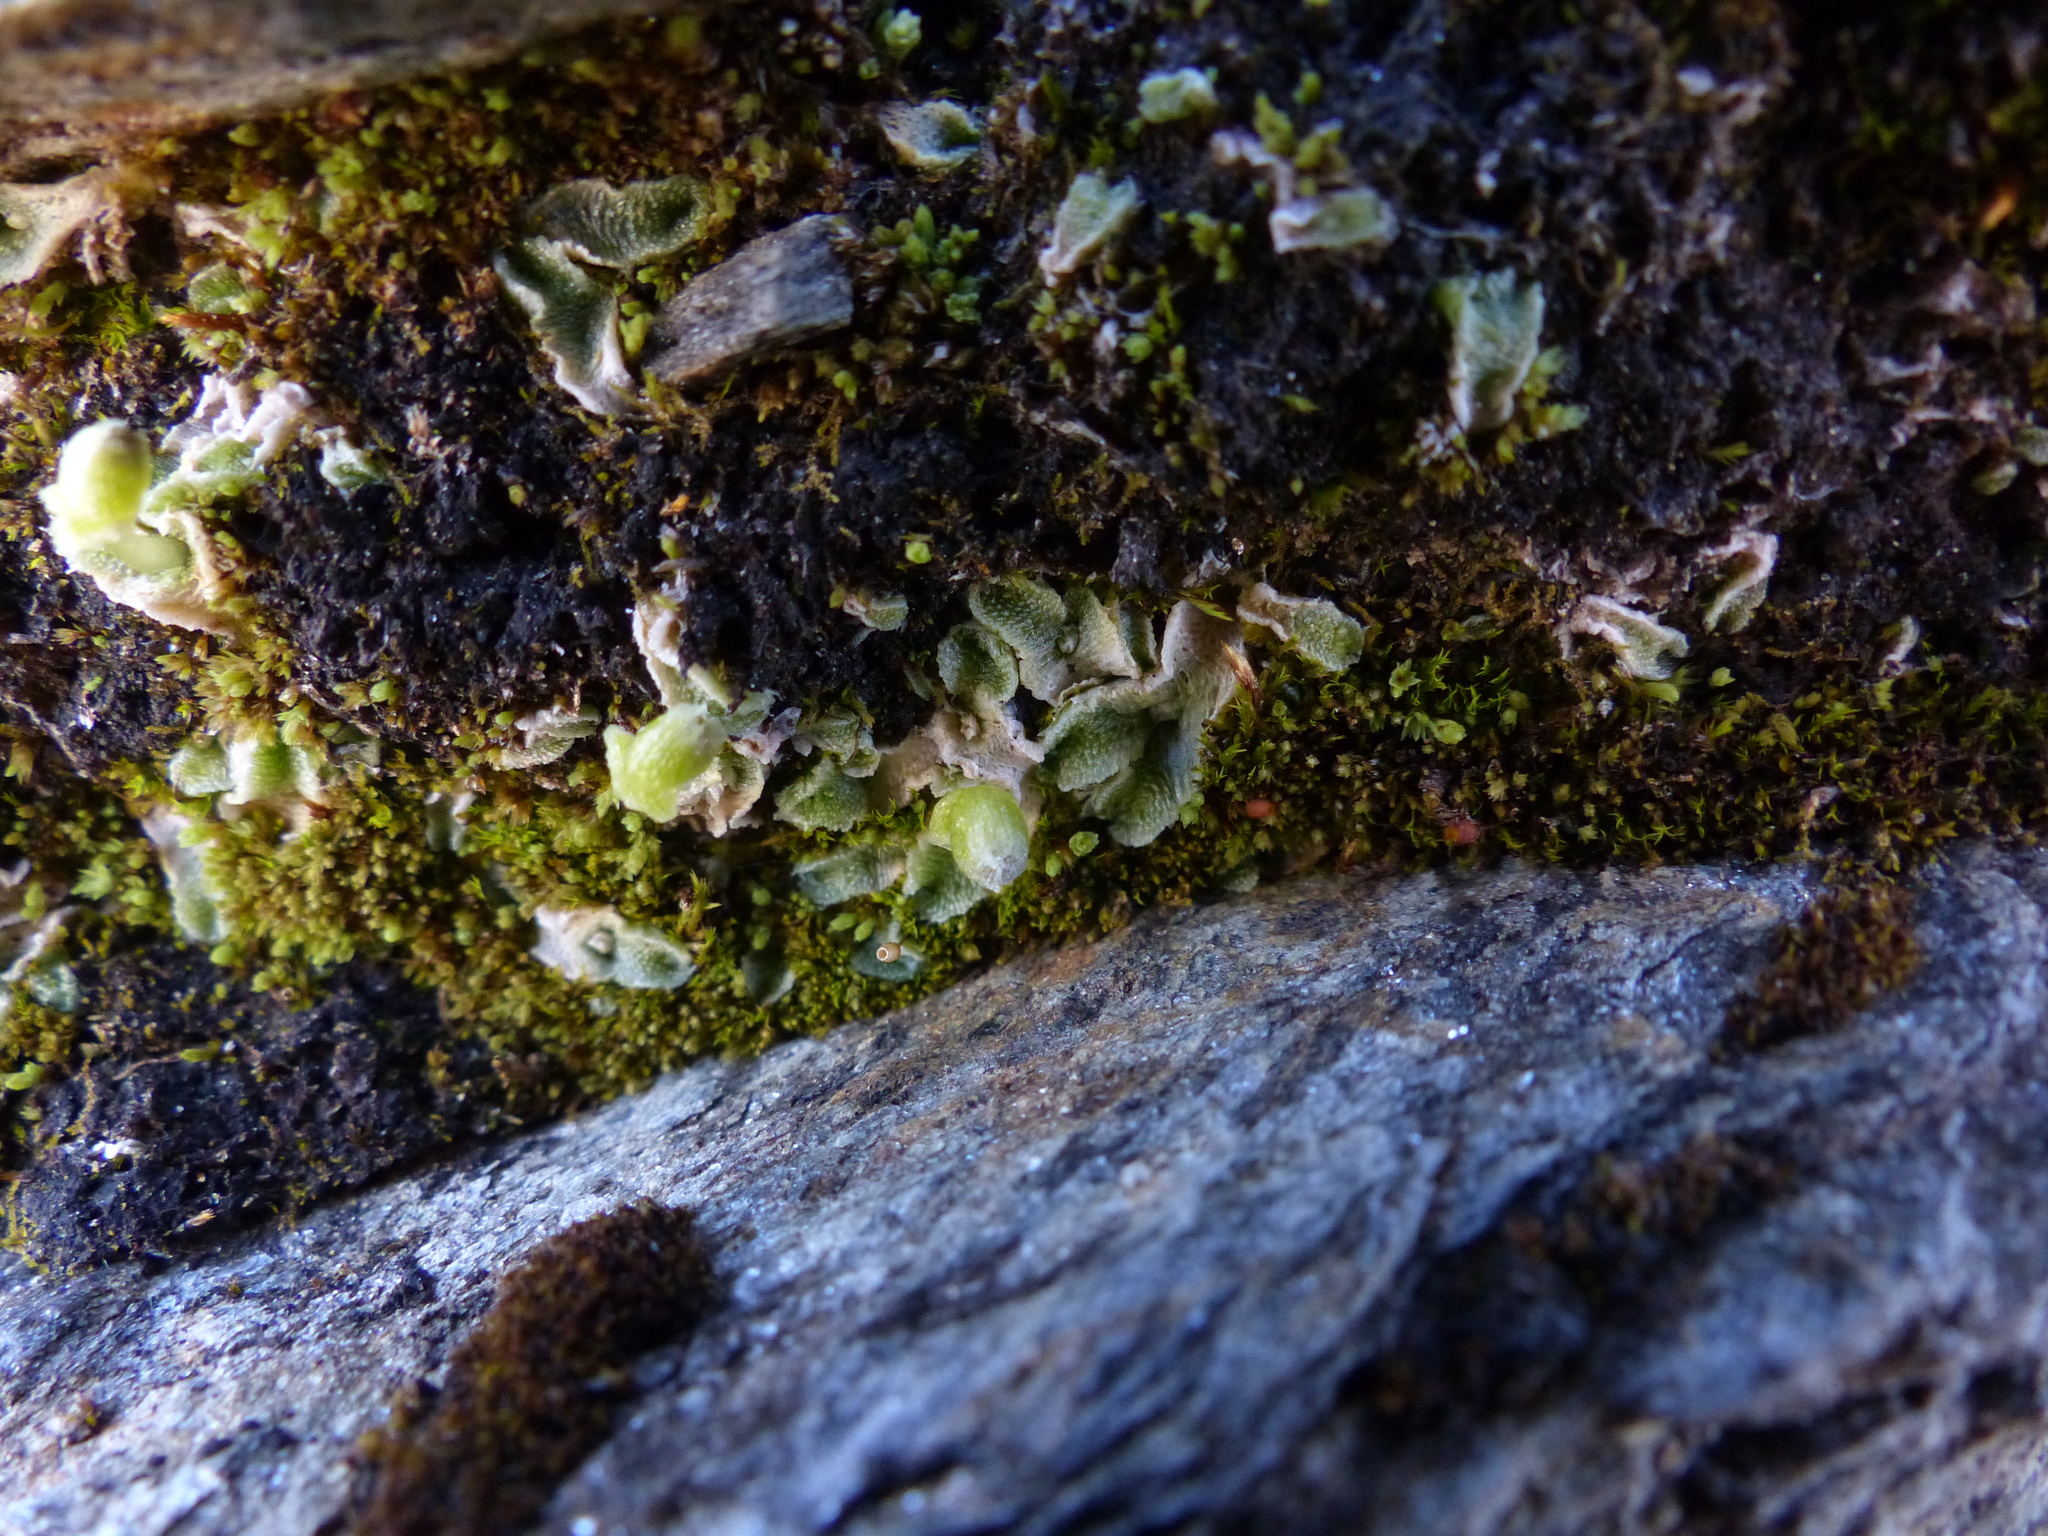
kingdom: Plantae
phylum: Marchantiophyta
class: Marchantiopsida
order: Marchantiales
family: Cleveaceae
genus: Sauteria
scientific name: Sauteria alpina
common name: Snow lungwort
